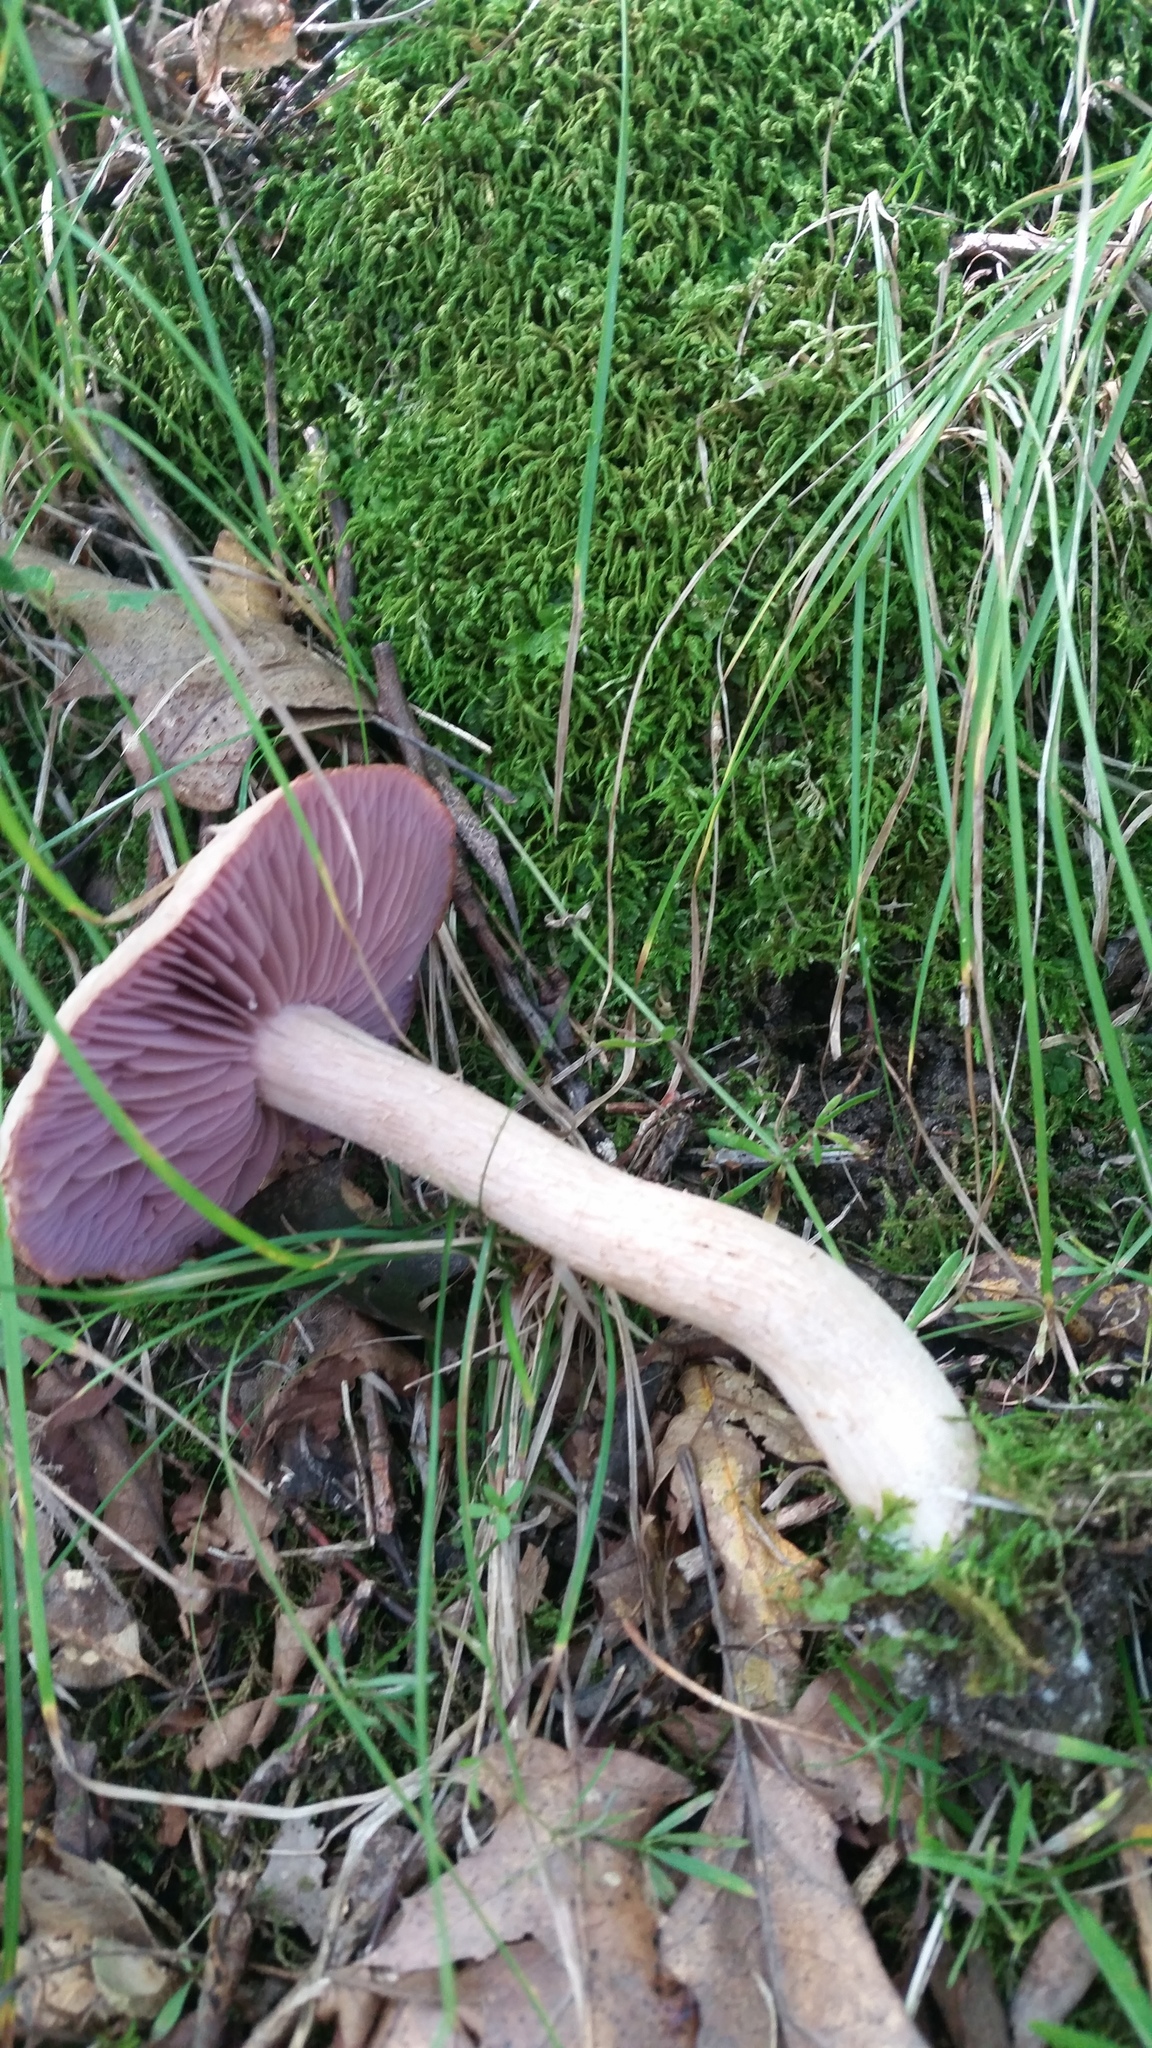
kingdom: Fungi
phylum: Basidiomycota
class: Agaricomycetes
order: Agaricales
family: Hydnangiaceae
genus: Laccaria
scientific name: Laccaria ochropurpurea
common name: Purple laccaria
